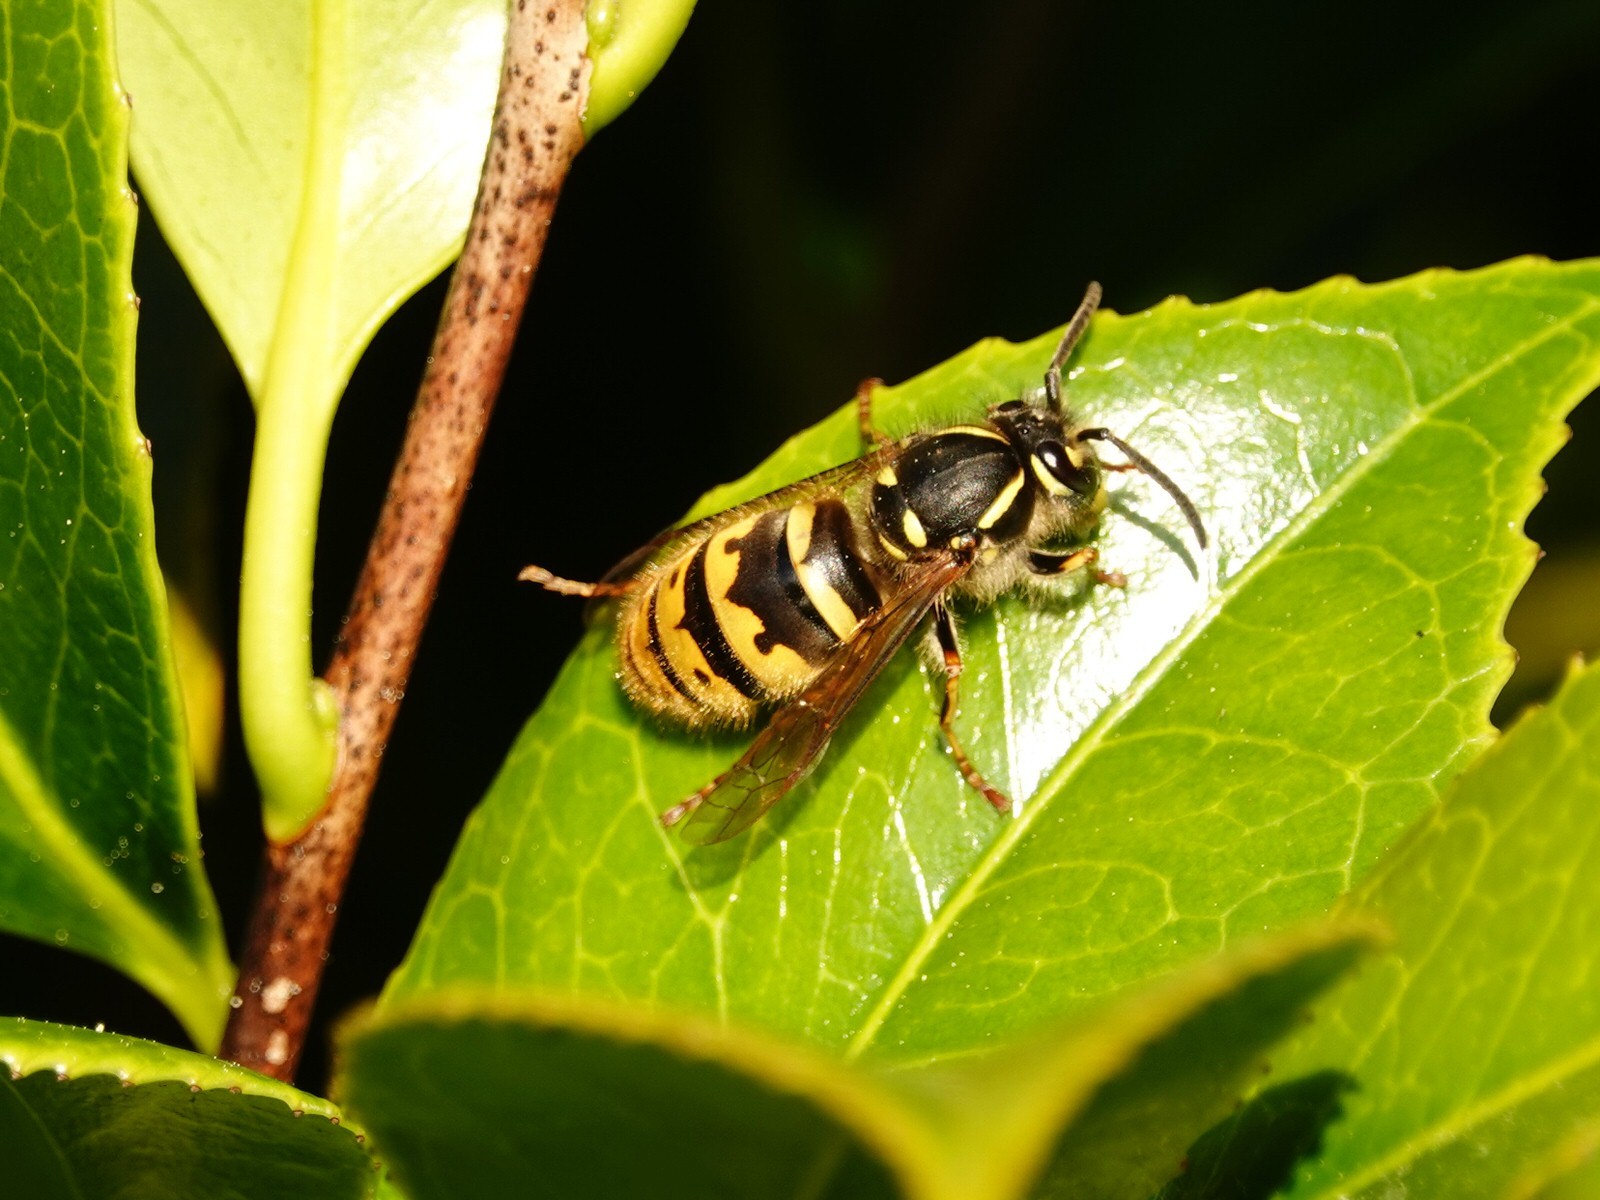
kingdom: Animalia
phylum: Arthropoda
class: Insecta
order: Hymenoptera
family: Vespidae
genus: Vespula
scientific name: Vespula vulgaris
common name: Common wasp
